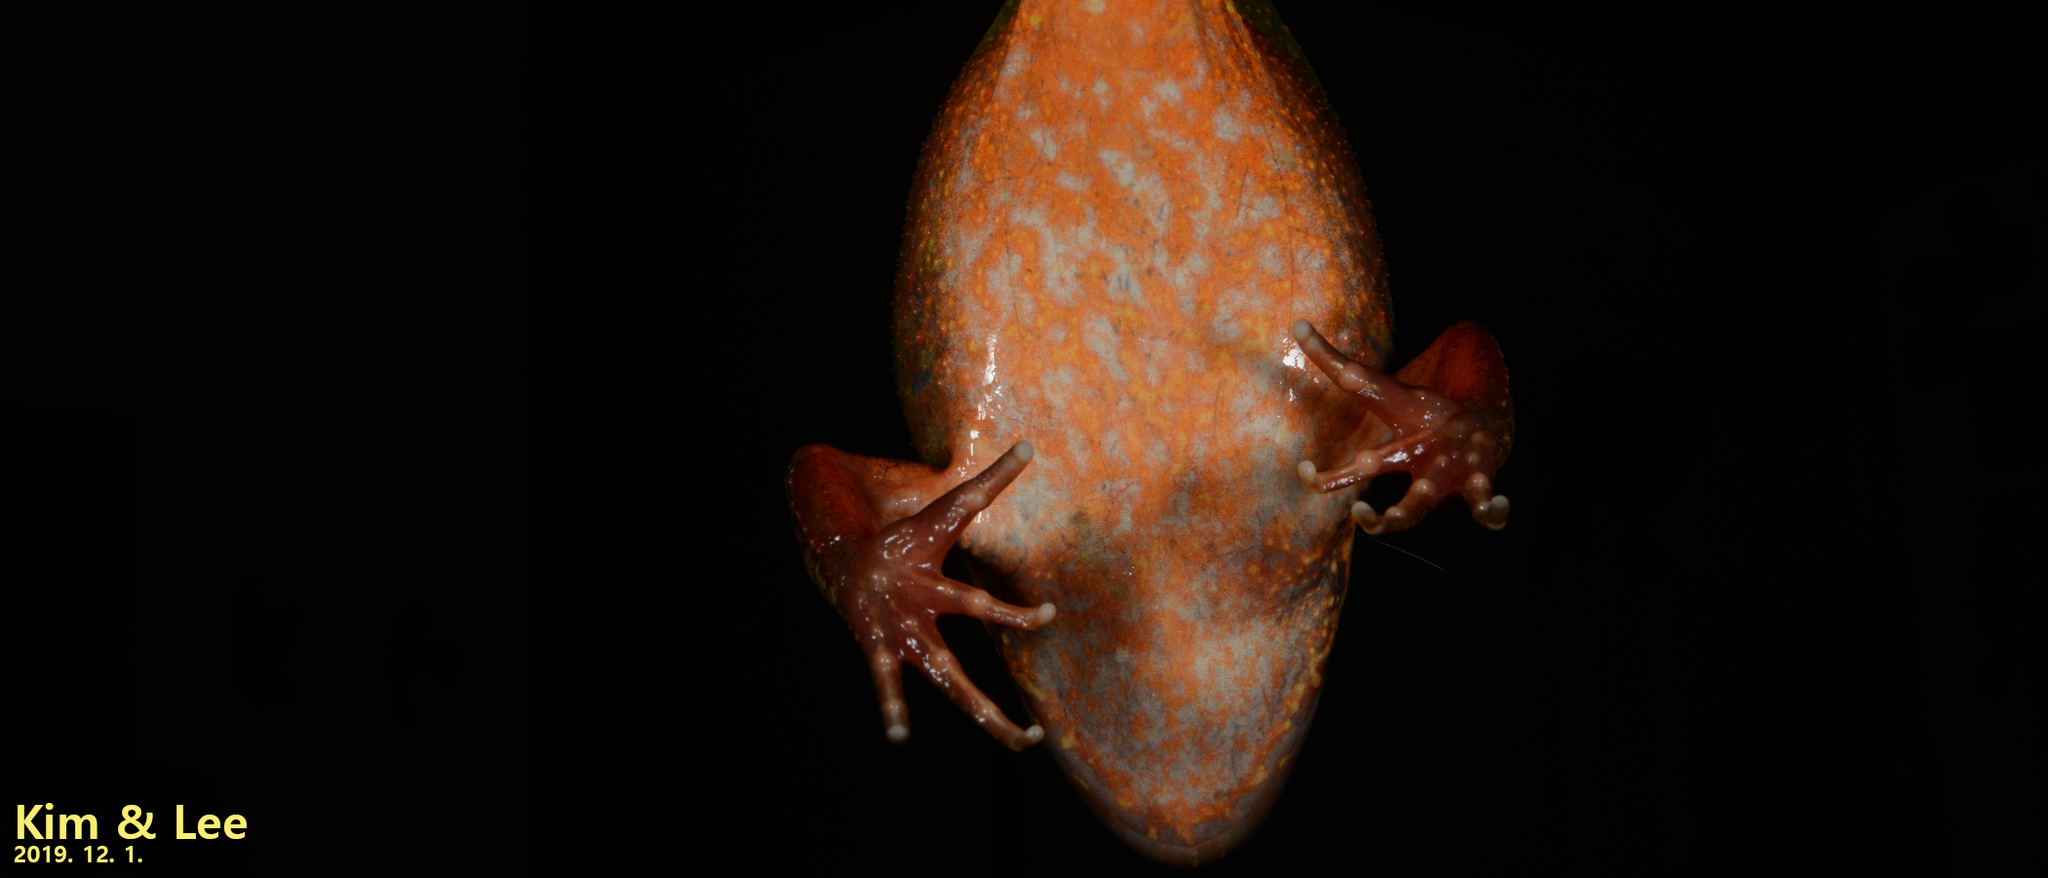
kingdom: Animalia
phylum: Chordata
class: Amphibia
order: Anura
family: Ranidae
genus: Rana
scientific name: Rana dybowskii
